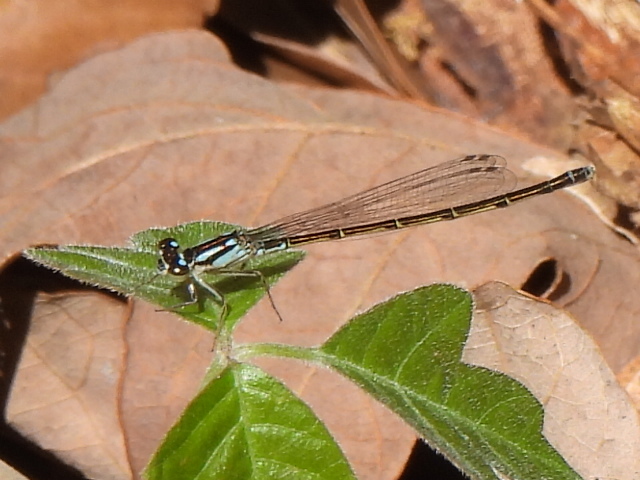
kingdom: Animalia
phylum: Arthropoda
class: Insecta
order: Odonata
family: Coenagrionidae
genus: Ischnura
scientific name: Ischnura posita
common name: Fragile forktail
